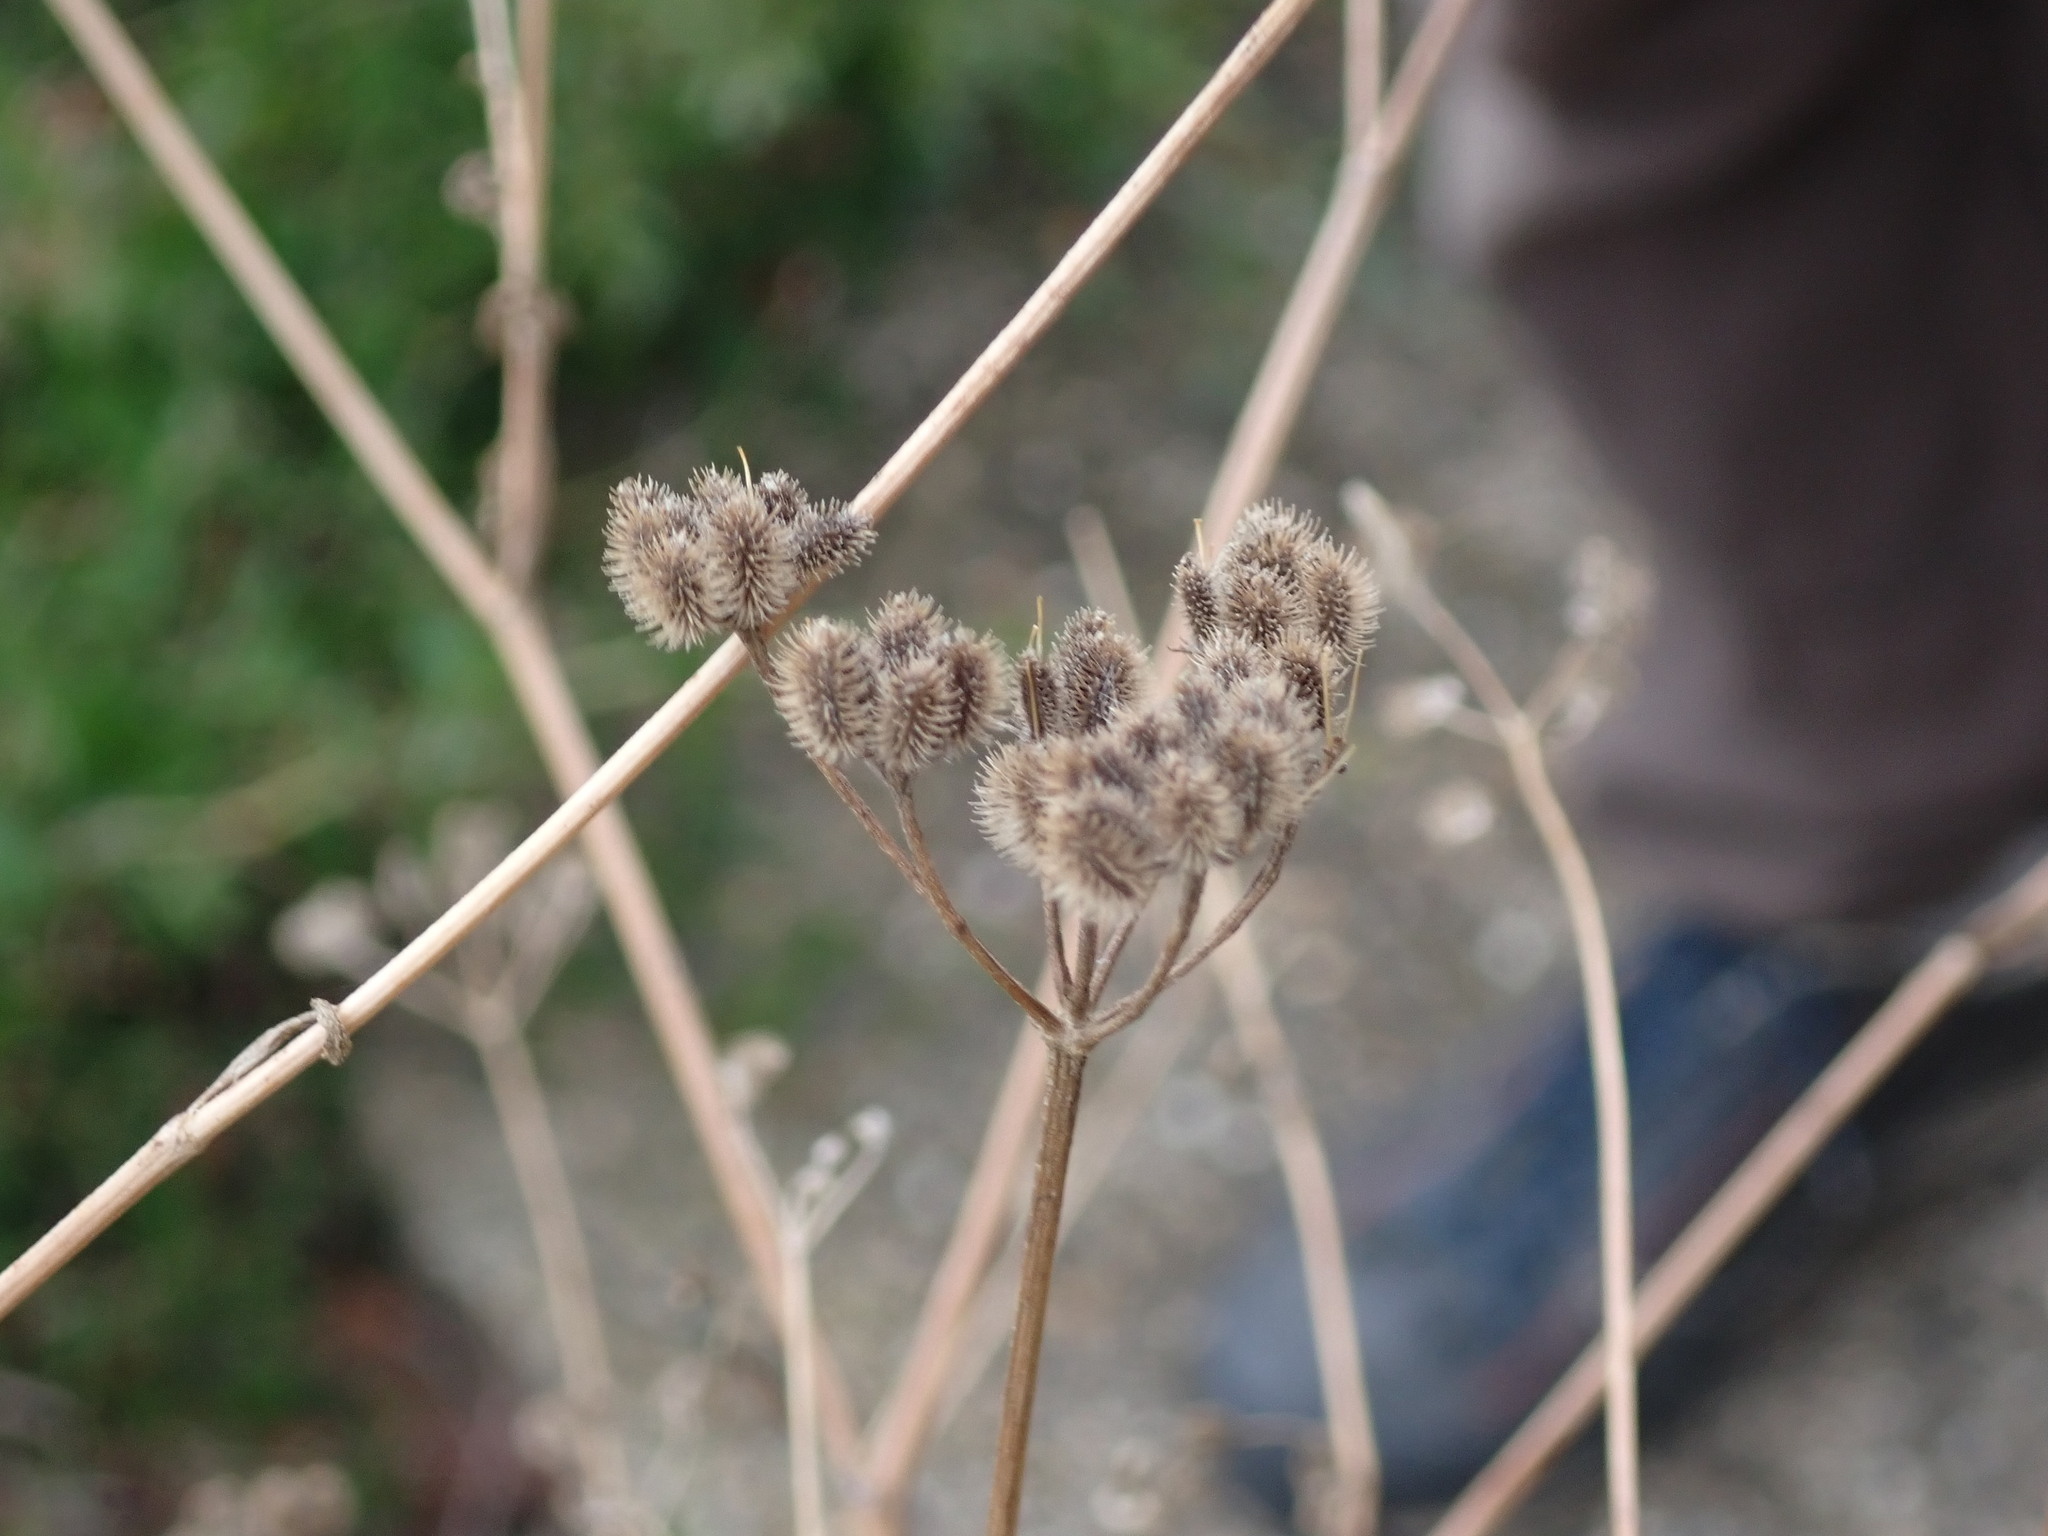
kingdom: Plantae
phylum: Tracheophyta
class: Magnoliopsida
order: Apiales
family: Apiaceae
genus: Tordylium
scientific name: Tordylium maximum
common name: Hartwort
